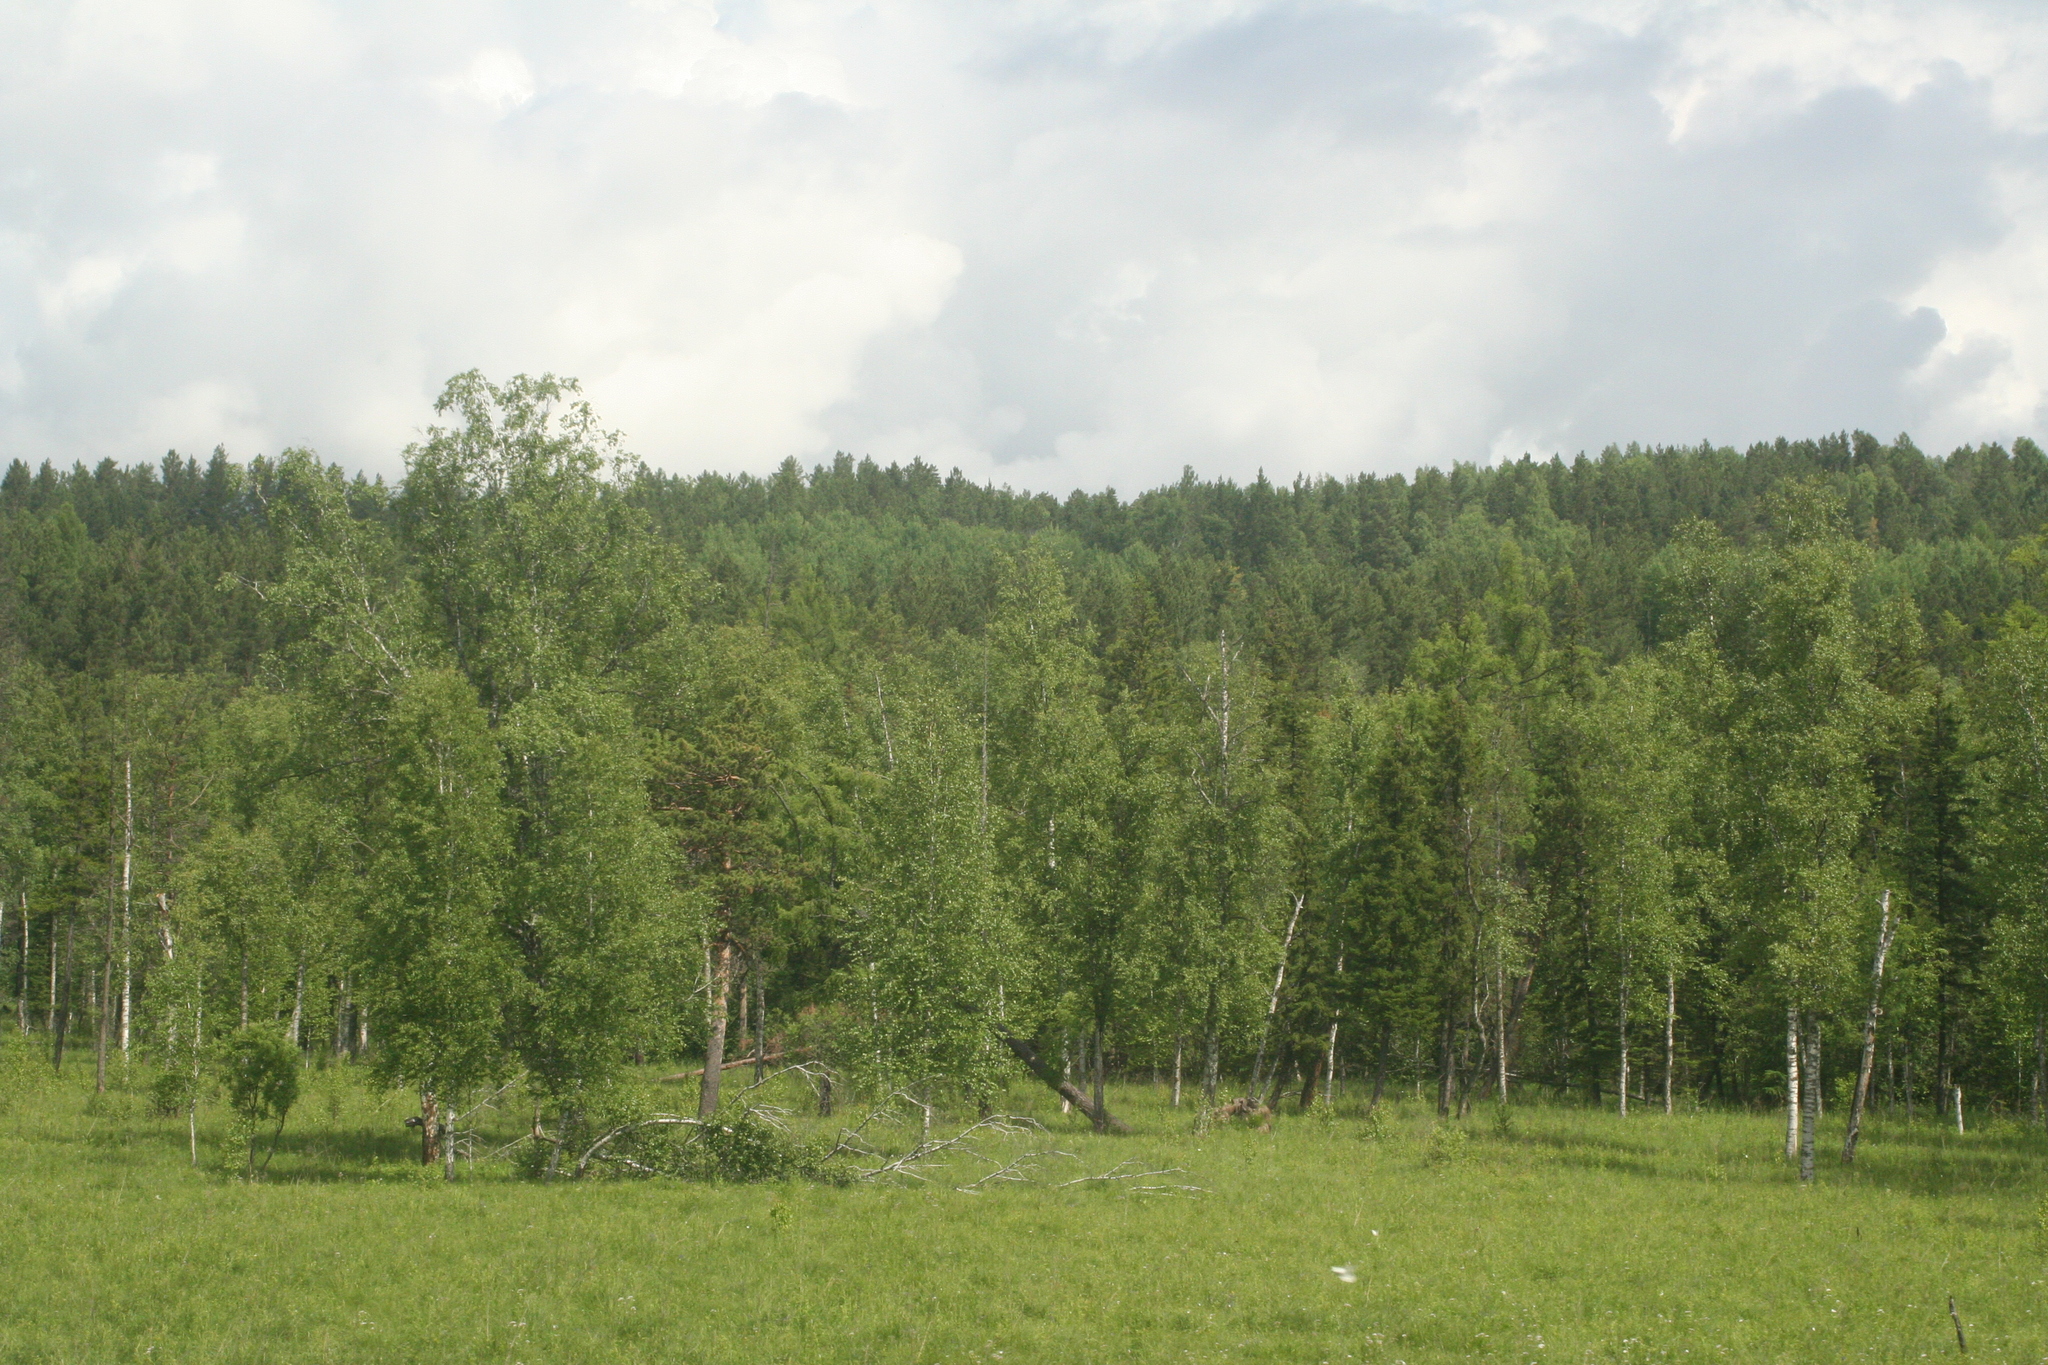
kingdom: Plantae
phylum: Tracheophyta
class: Pinopsida
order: Pinales
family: Pinaceae
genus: Picea
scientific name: Picea obovata
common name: Siberian spruce
